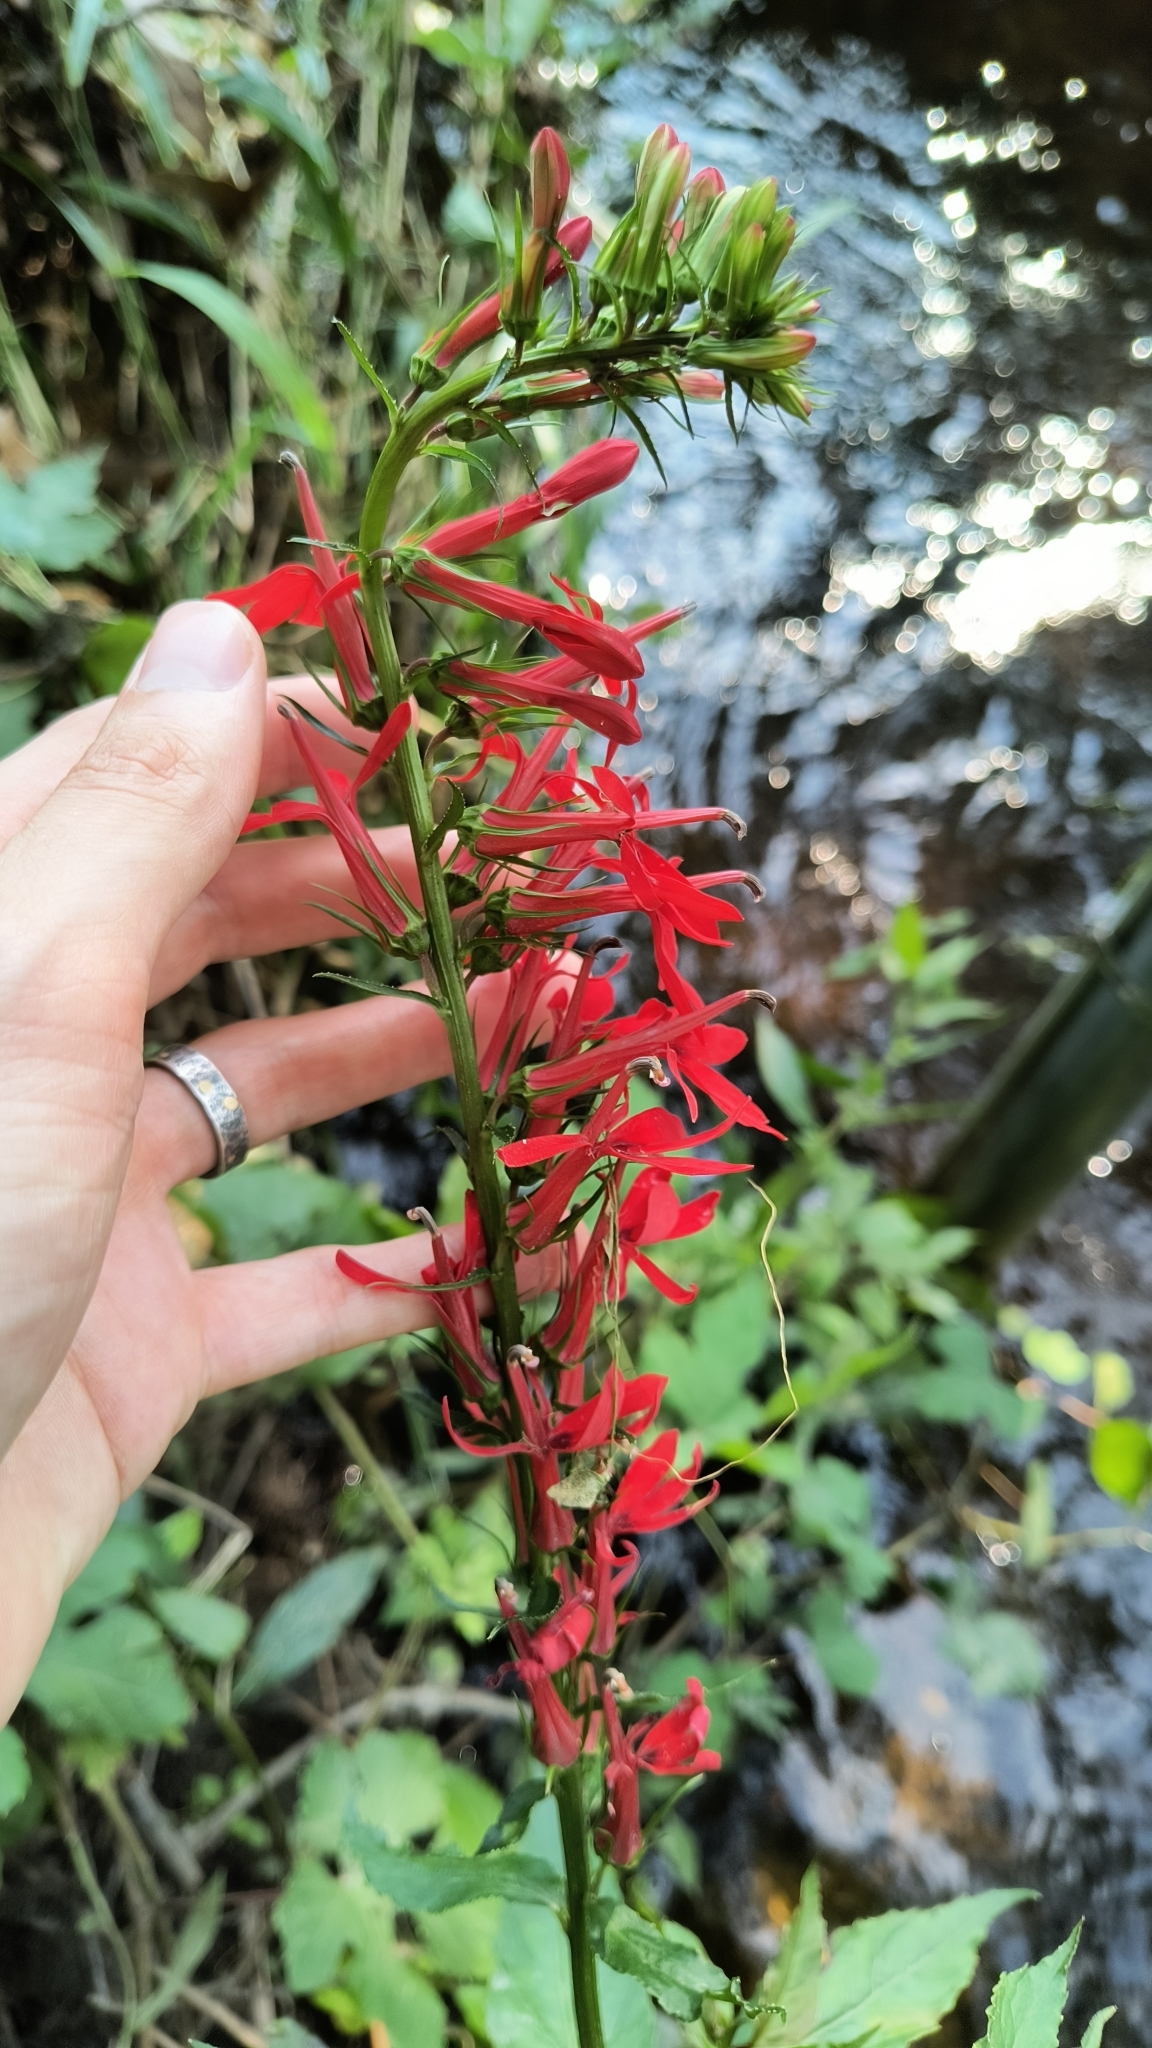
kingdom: Plantae
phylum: Tracheophyta
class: Magnoliopsida
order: Asterales
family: Campanulaceae
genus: Lobelia
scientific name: Lobelia cardinalis
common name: Cardinal flower
